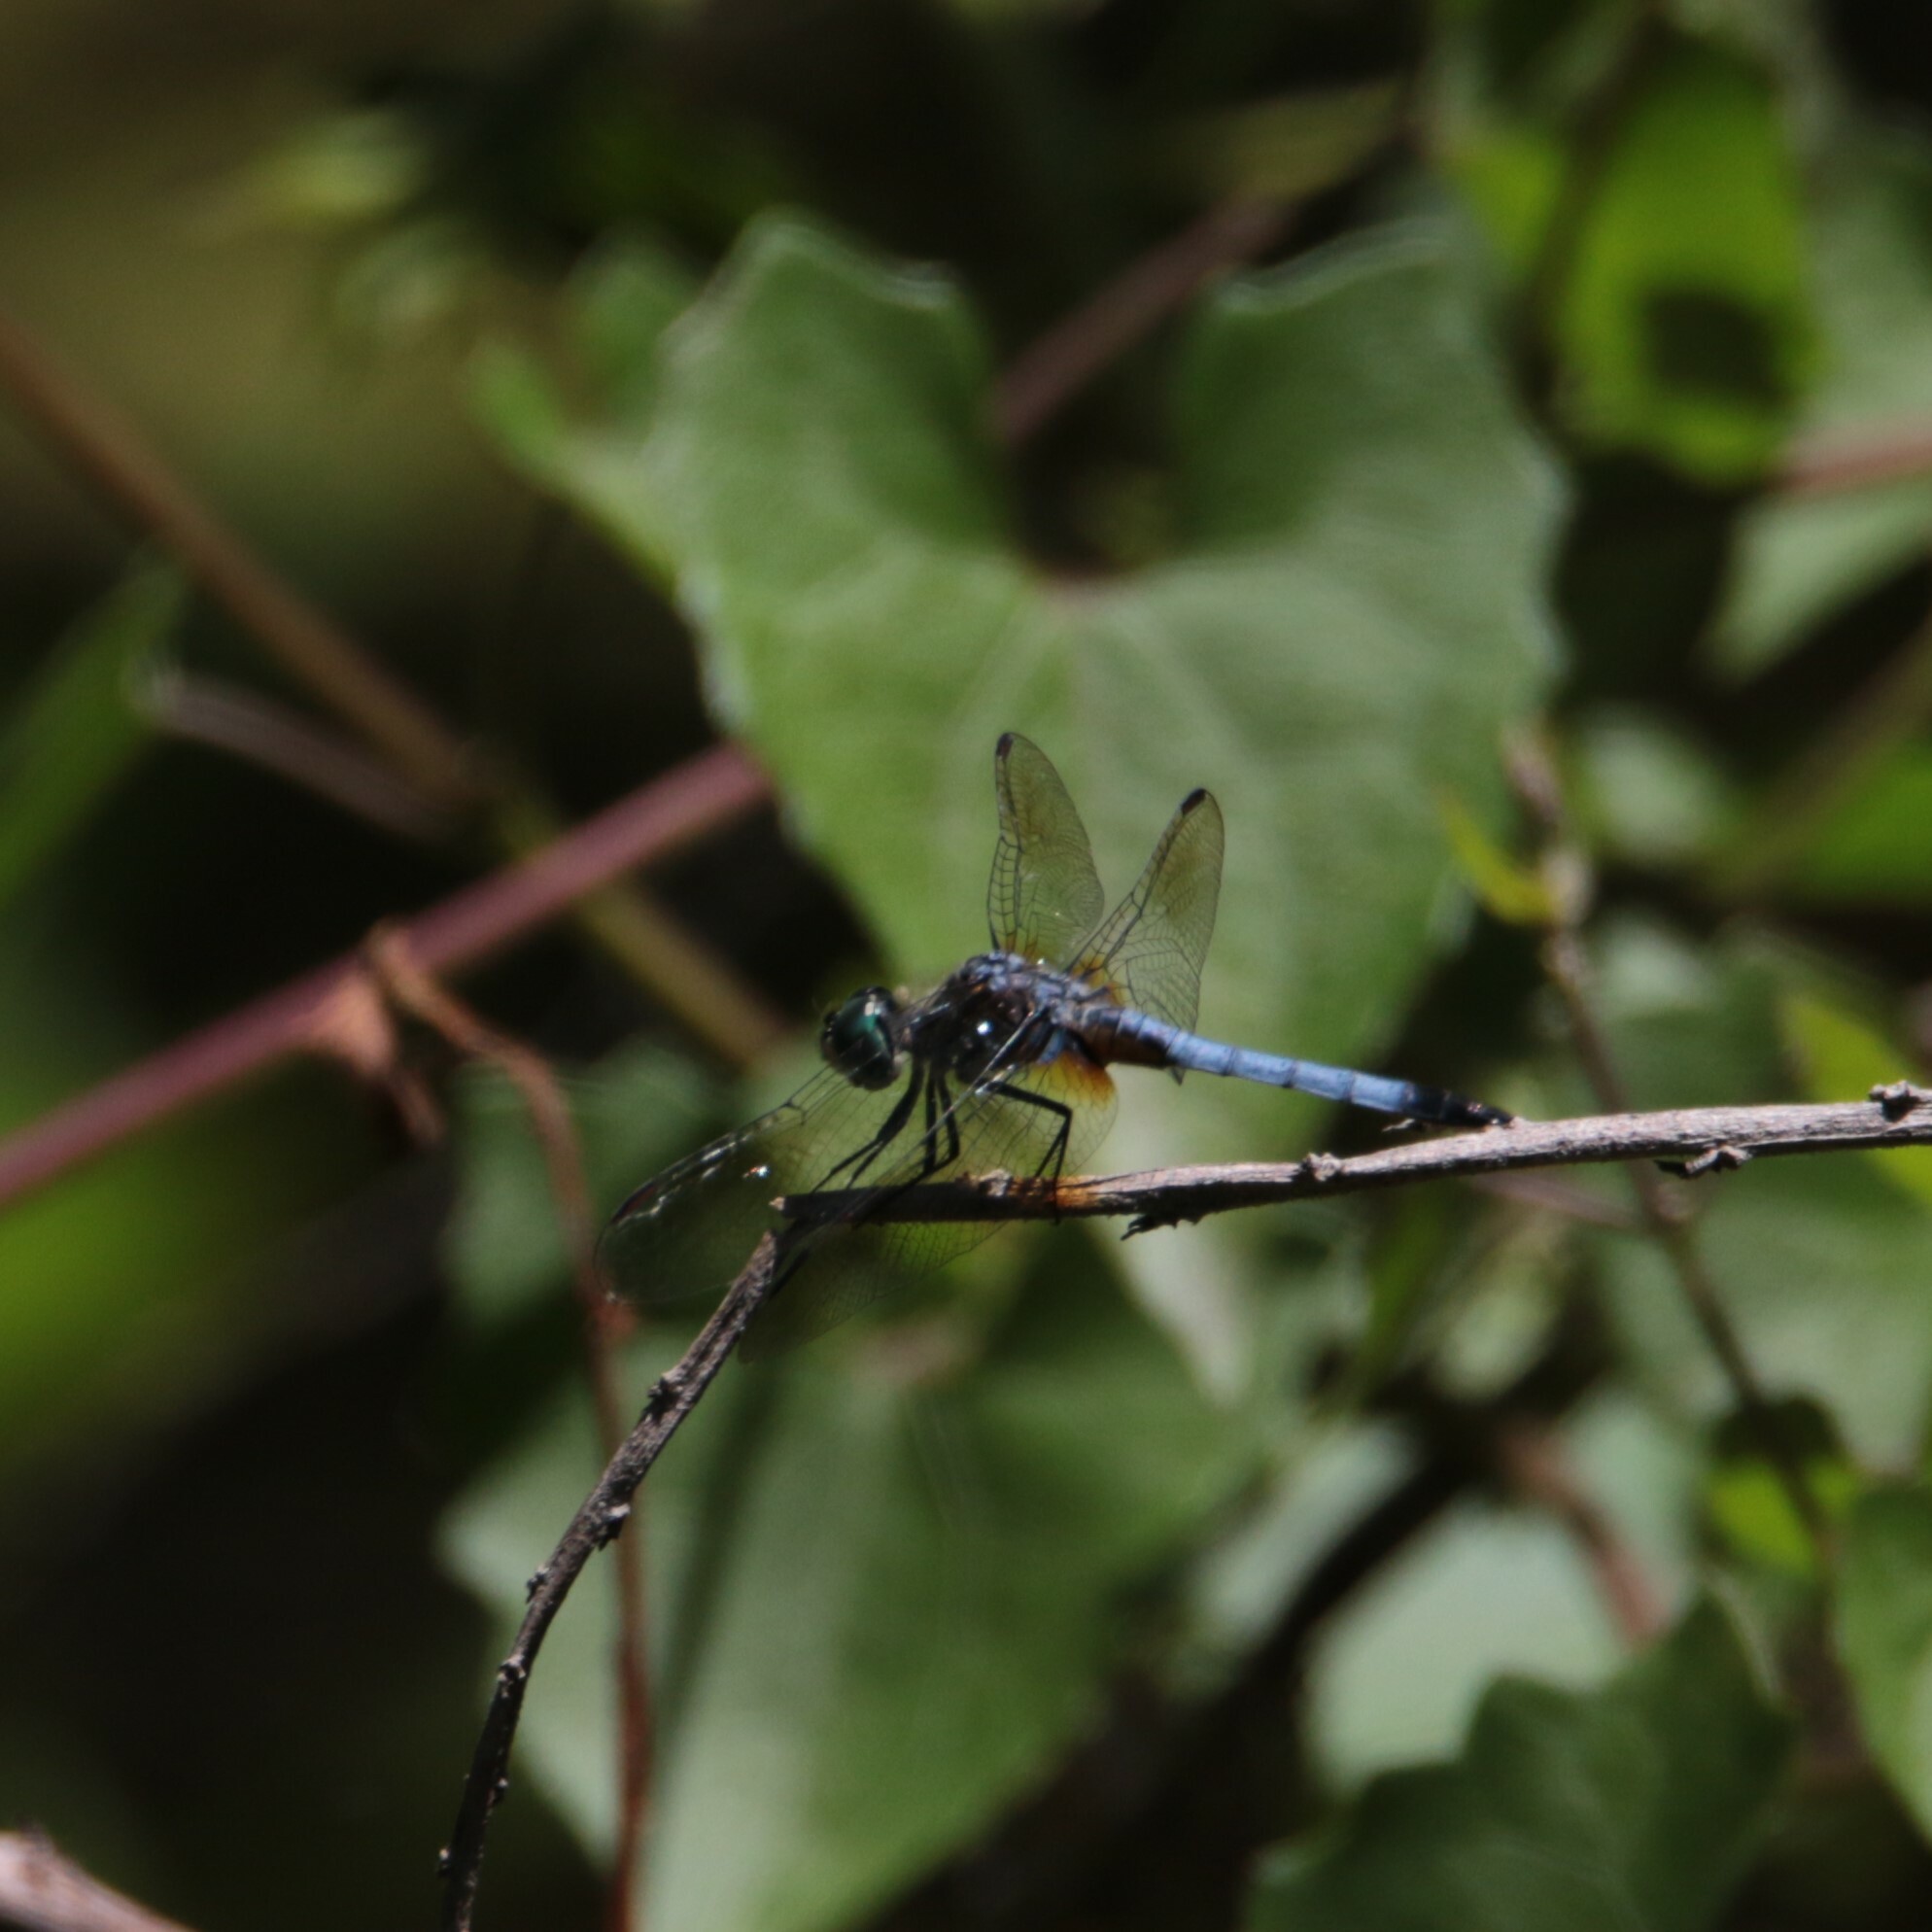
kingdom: Animalia
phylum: Arthropoda
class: Insecta
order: Odonata
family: Libellulidae
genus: Pachydiplax
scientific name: Pachydiplax longipennis
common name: Blue dasher
